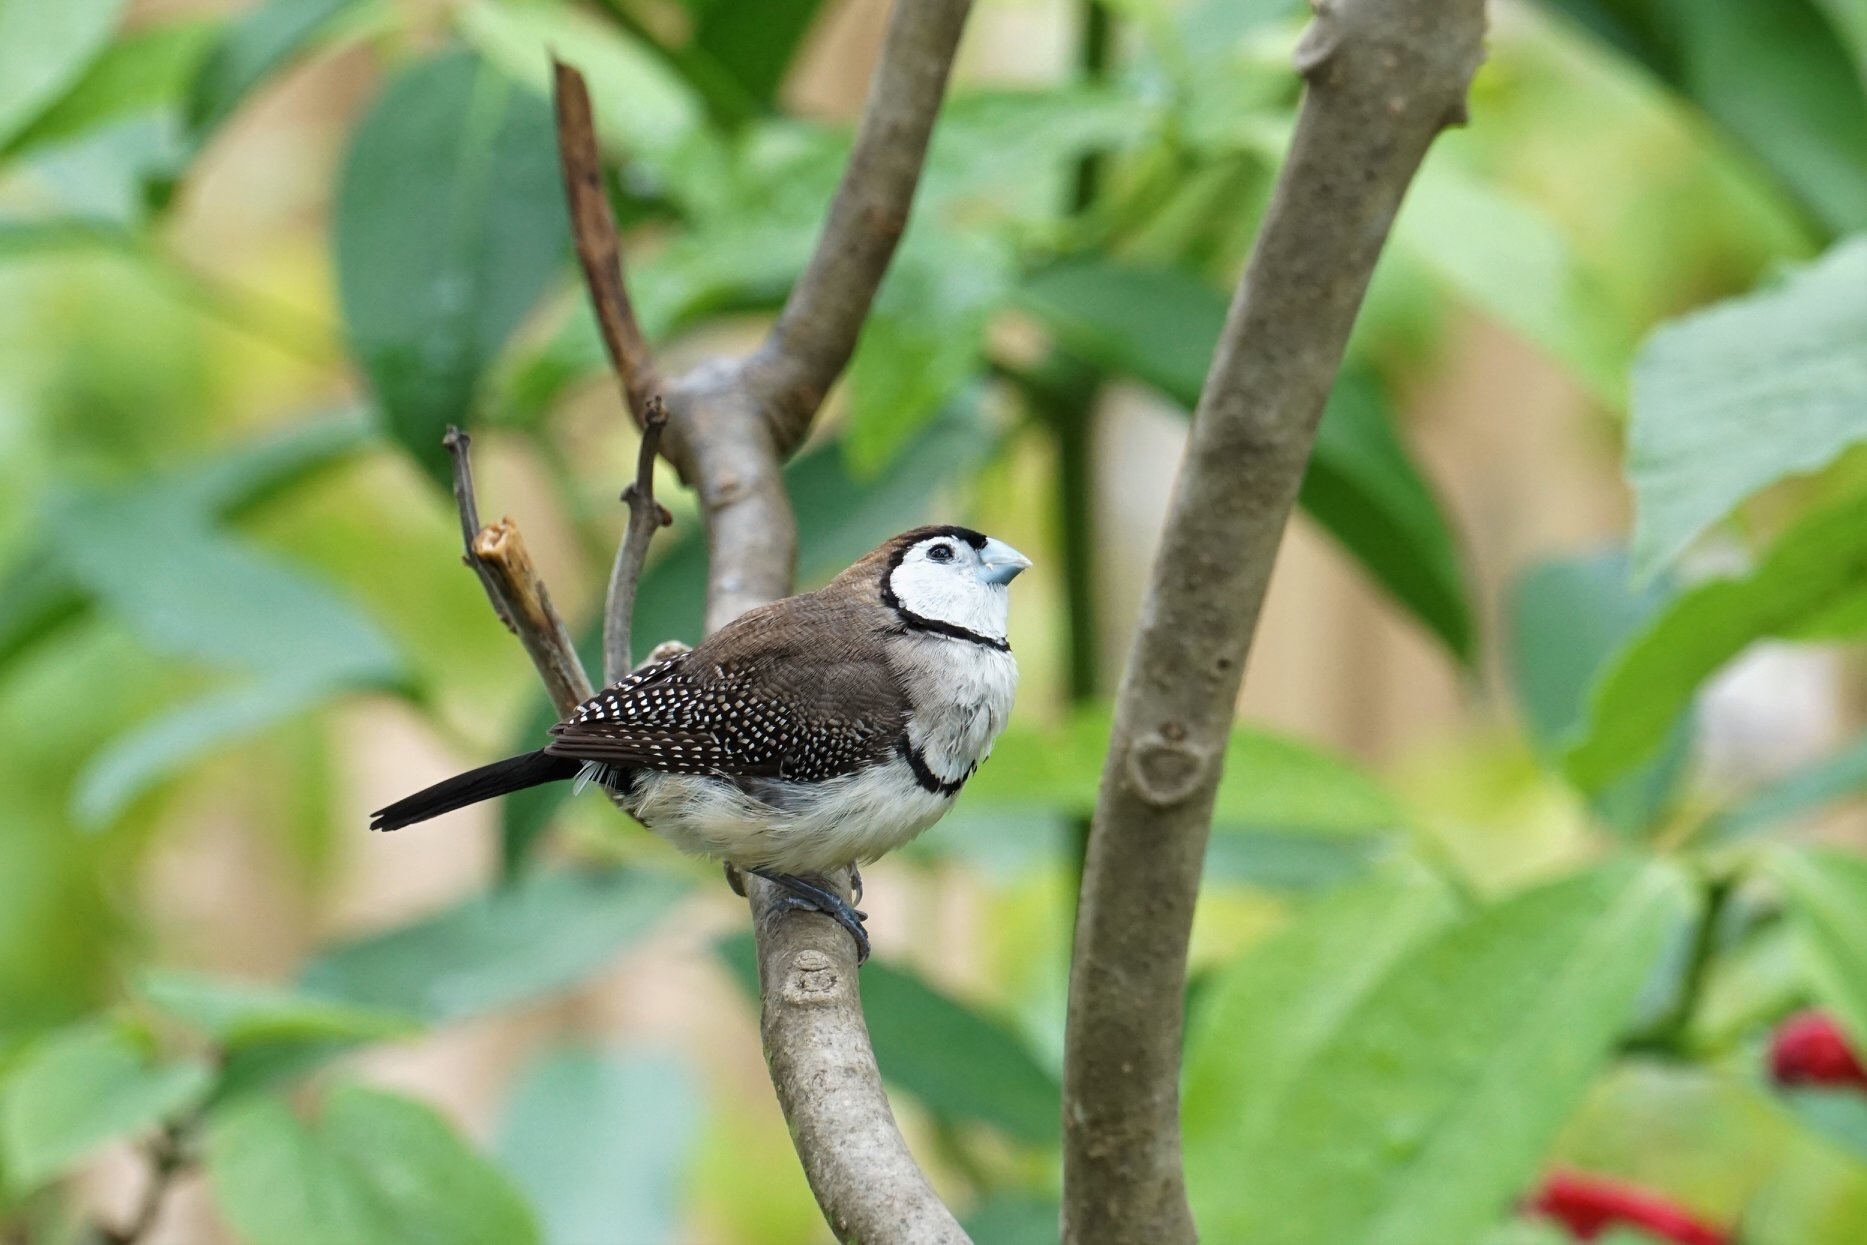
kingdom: Animalia
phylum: Chordata
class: Aves
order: Passeriformes
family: Estrildidae
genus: Taeniopygia
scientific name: Taeniopygia bichenovii
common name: Double-barred finch
